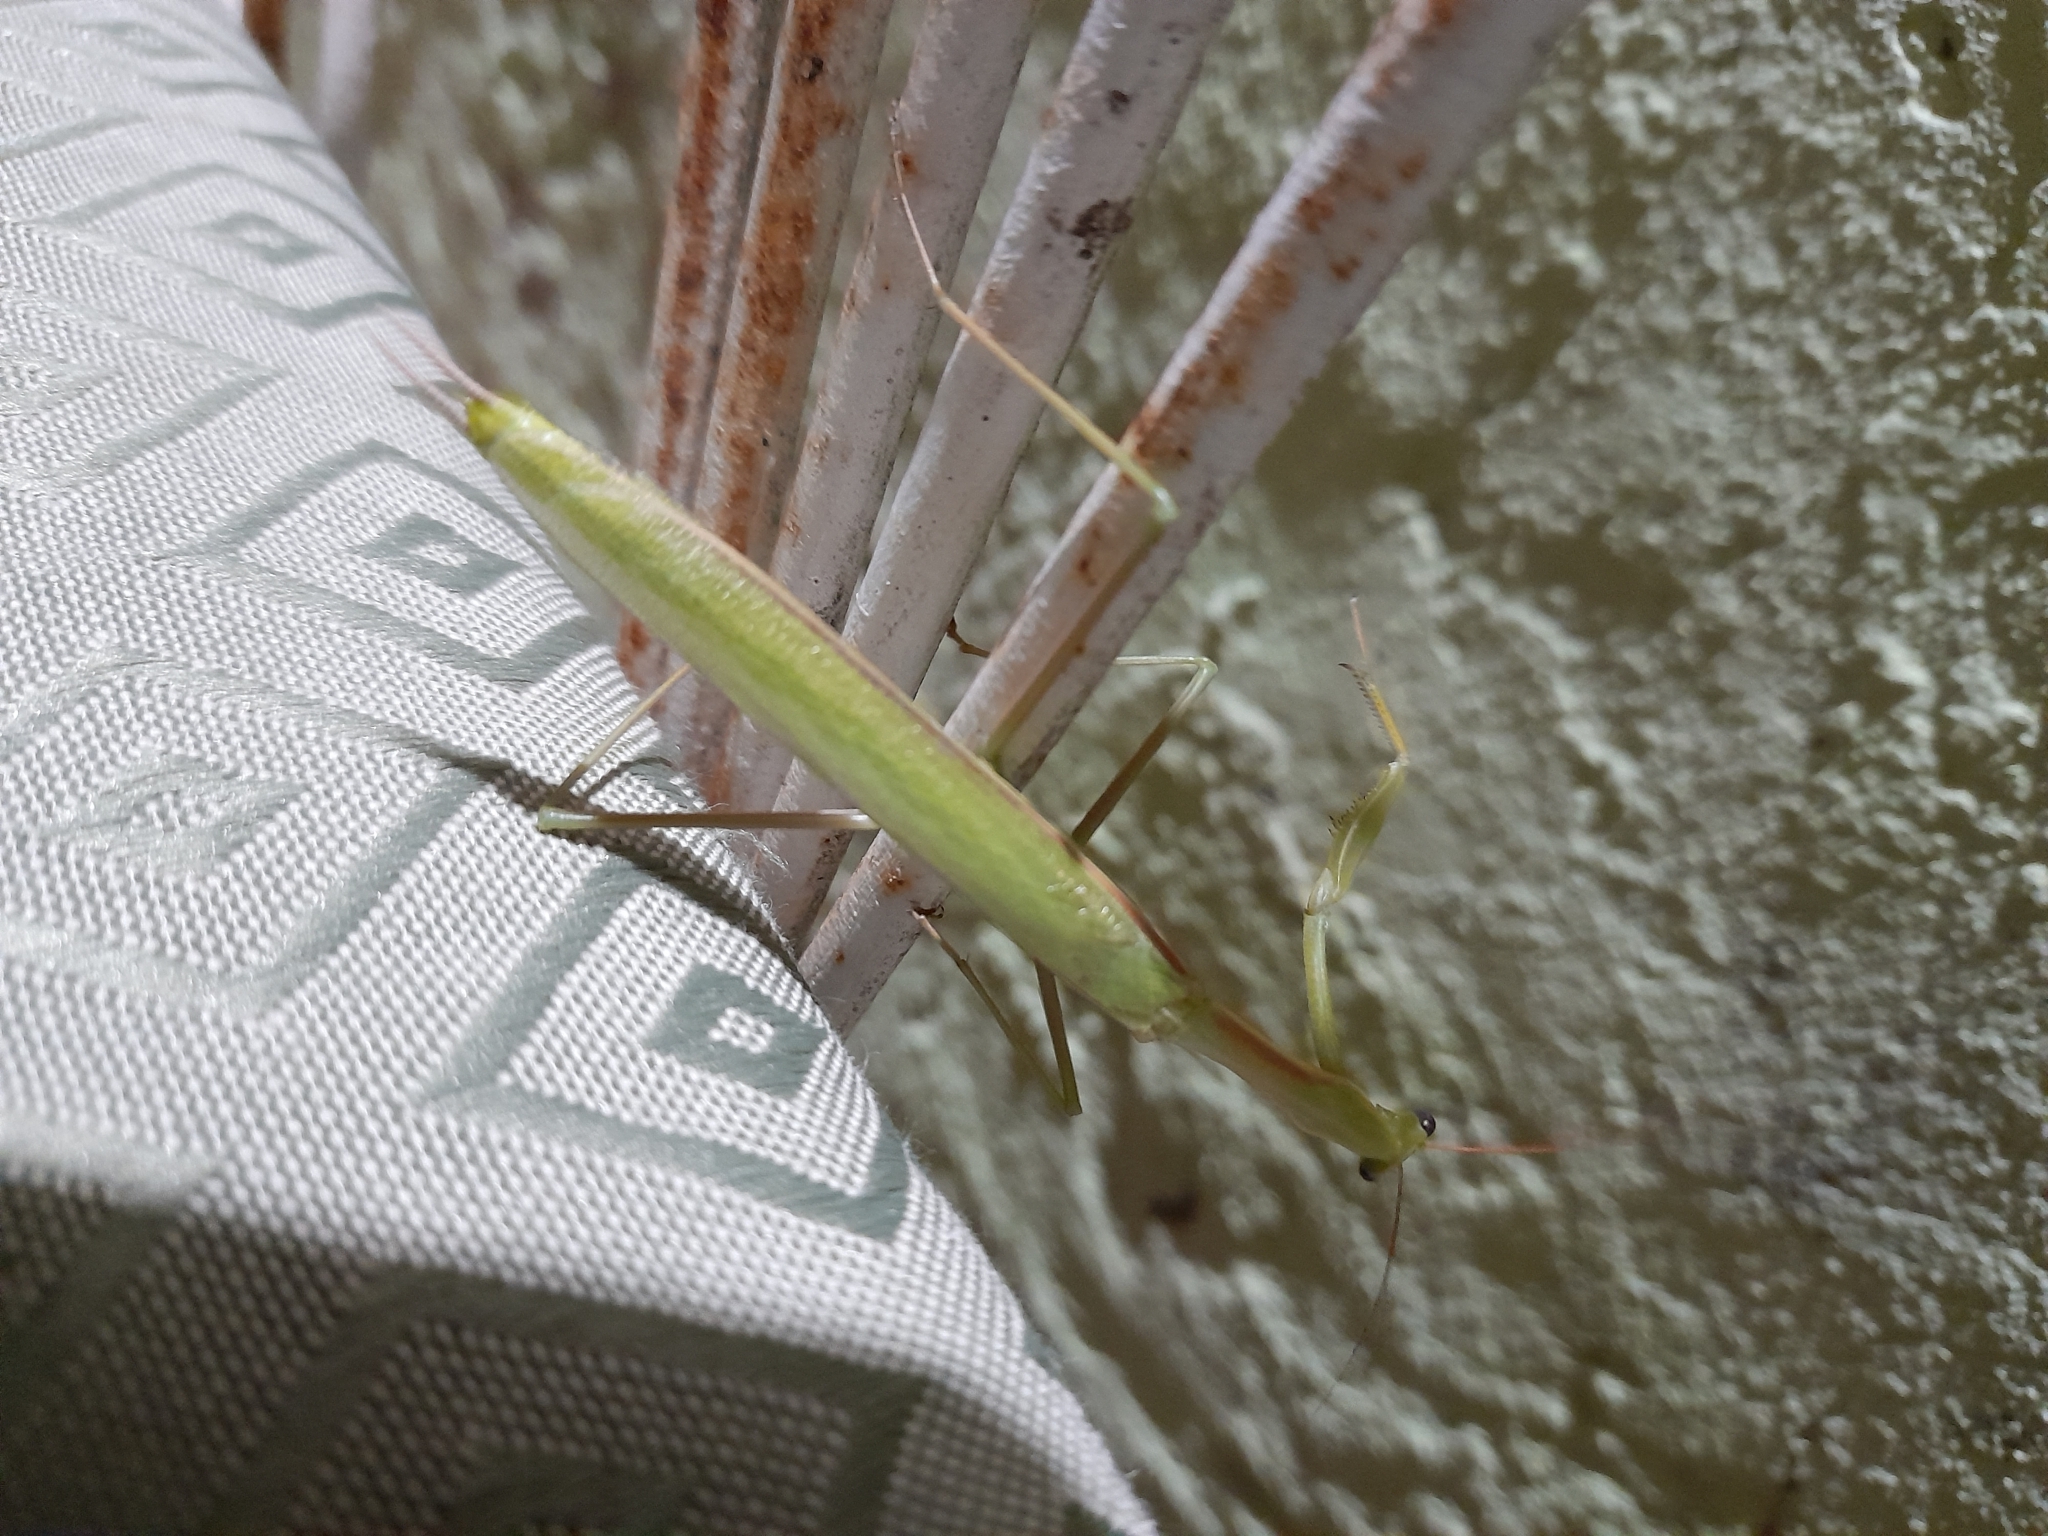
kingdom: Animalia
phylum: Arthropoda
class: Insecta
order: Mantodea
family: Coptopterygidae
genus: Coptopteryx
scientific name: Coptopteryx argentina
